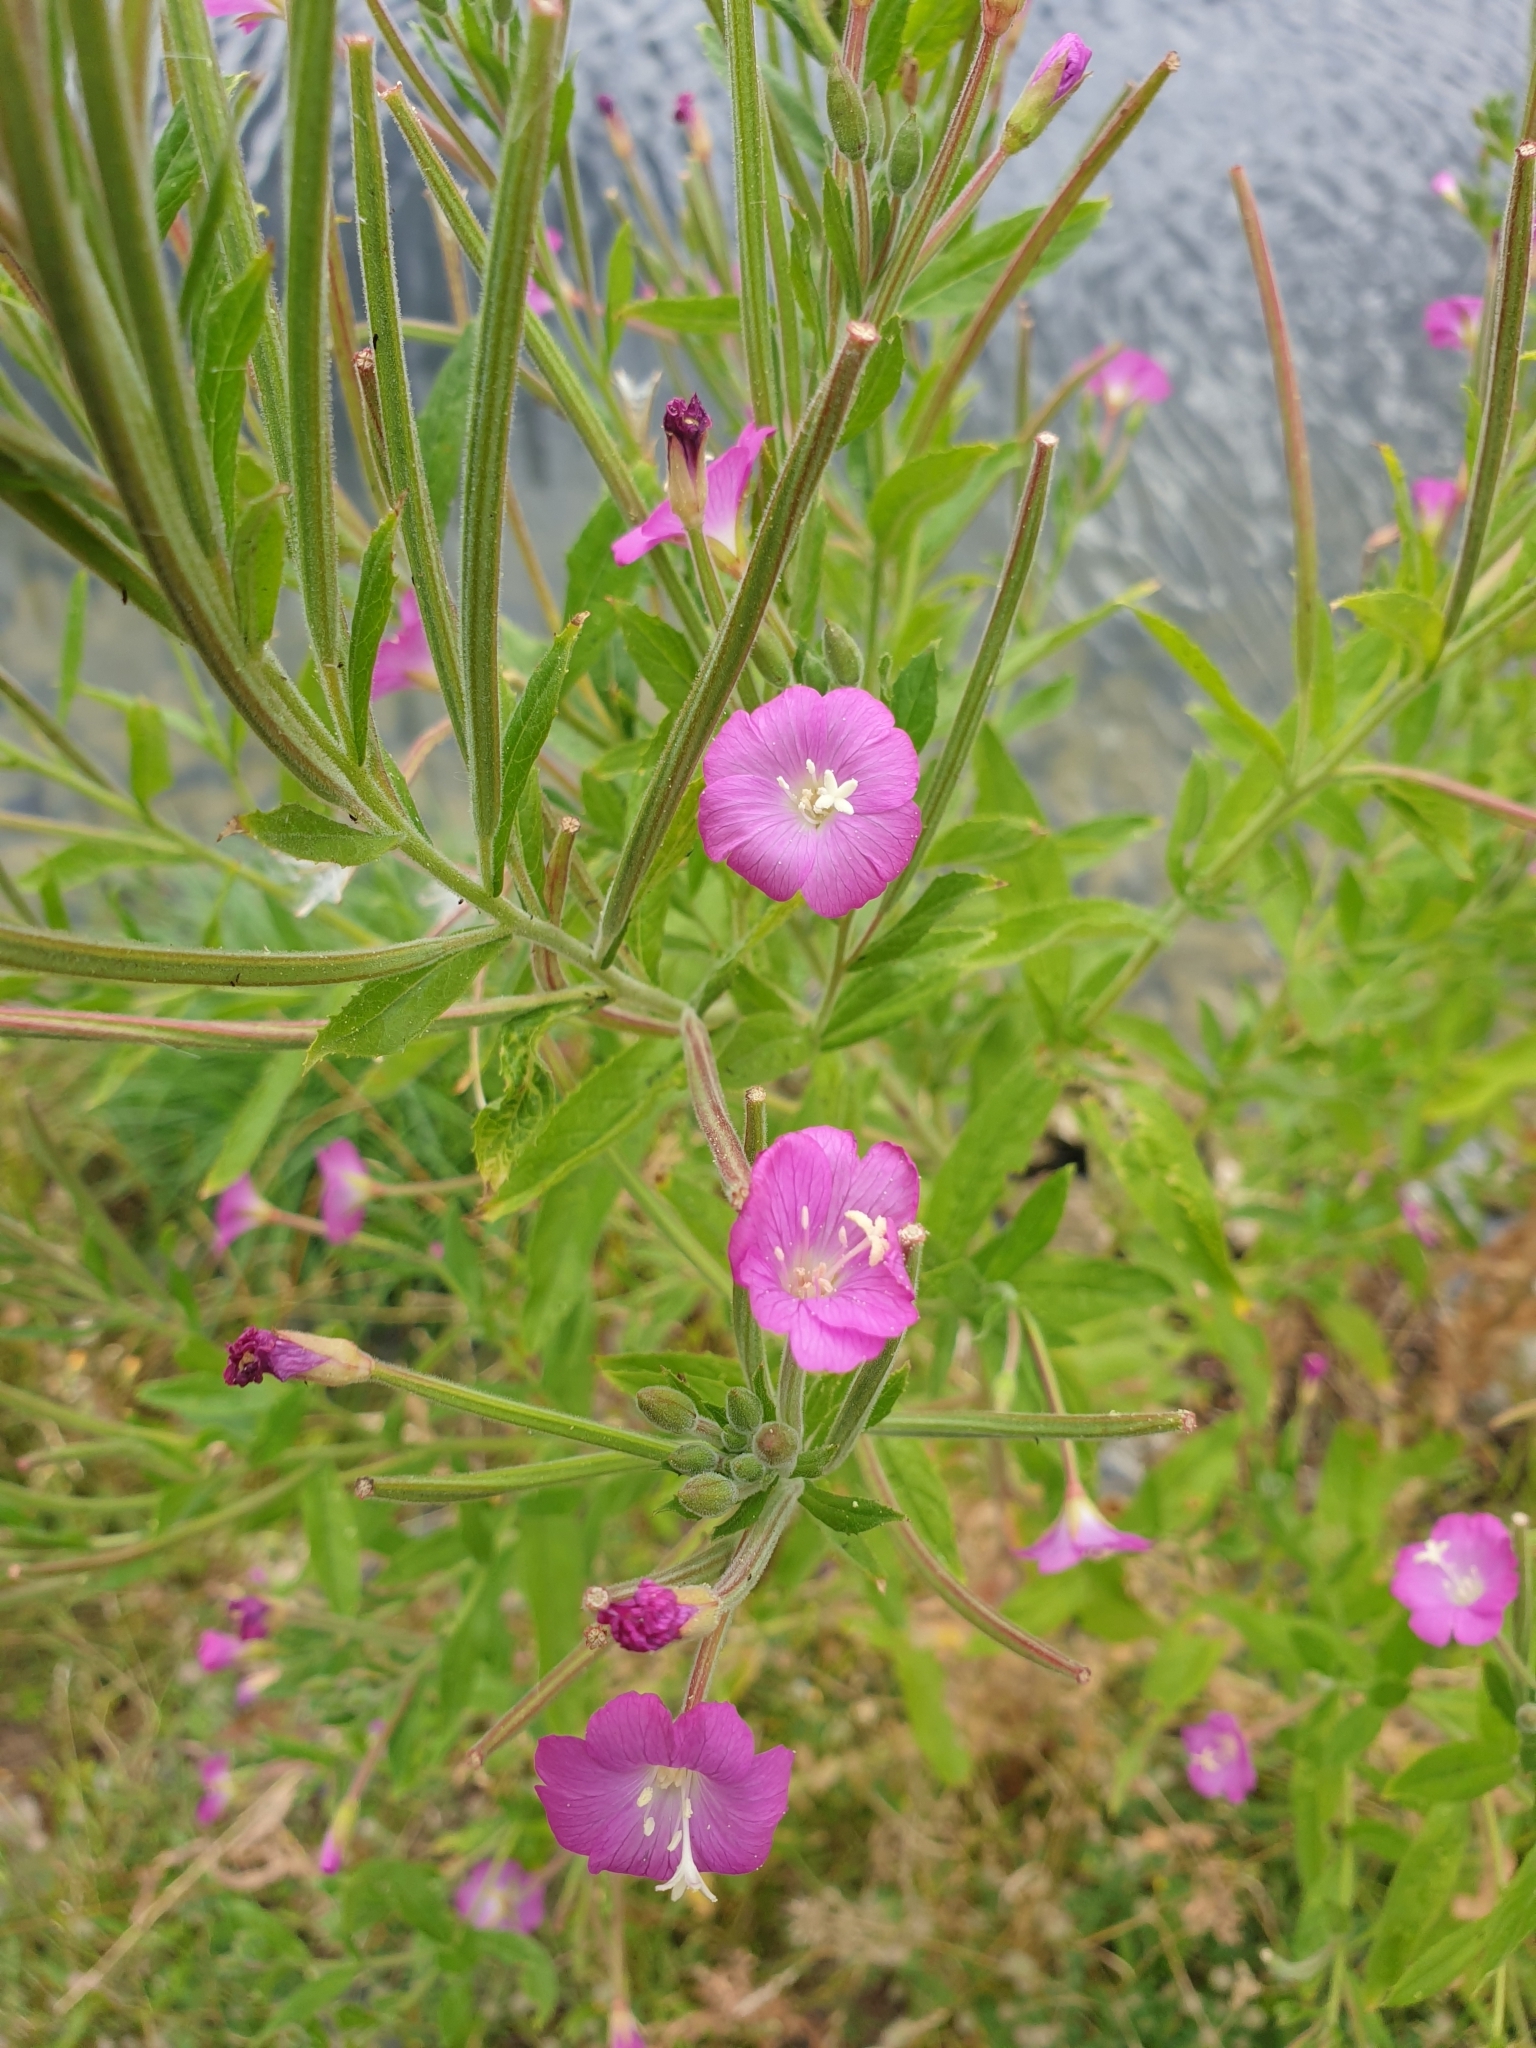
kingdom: Plantae
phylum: Tracheophyta
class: Magnoliopsida
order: Myrtales
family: Onagraceae
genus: Epilobium
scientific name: Epilobium hirsutum
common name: Great willowherb
